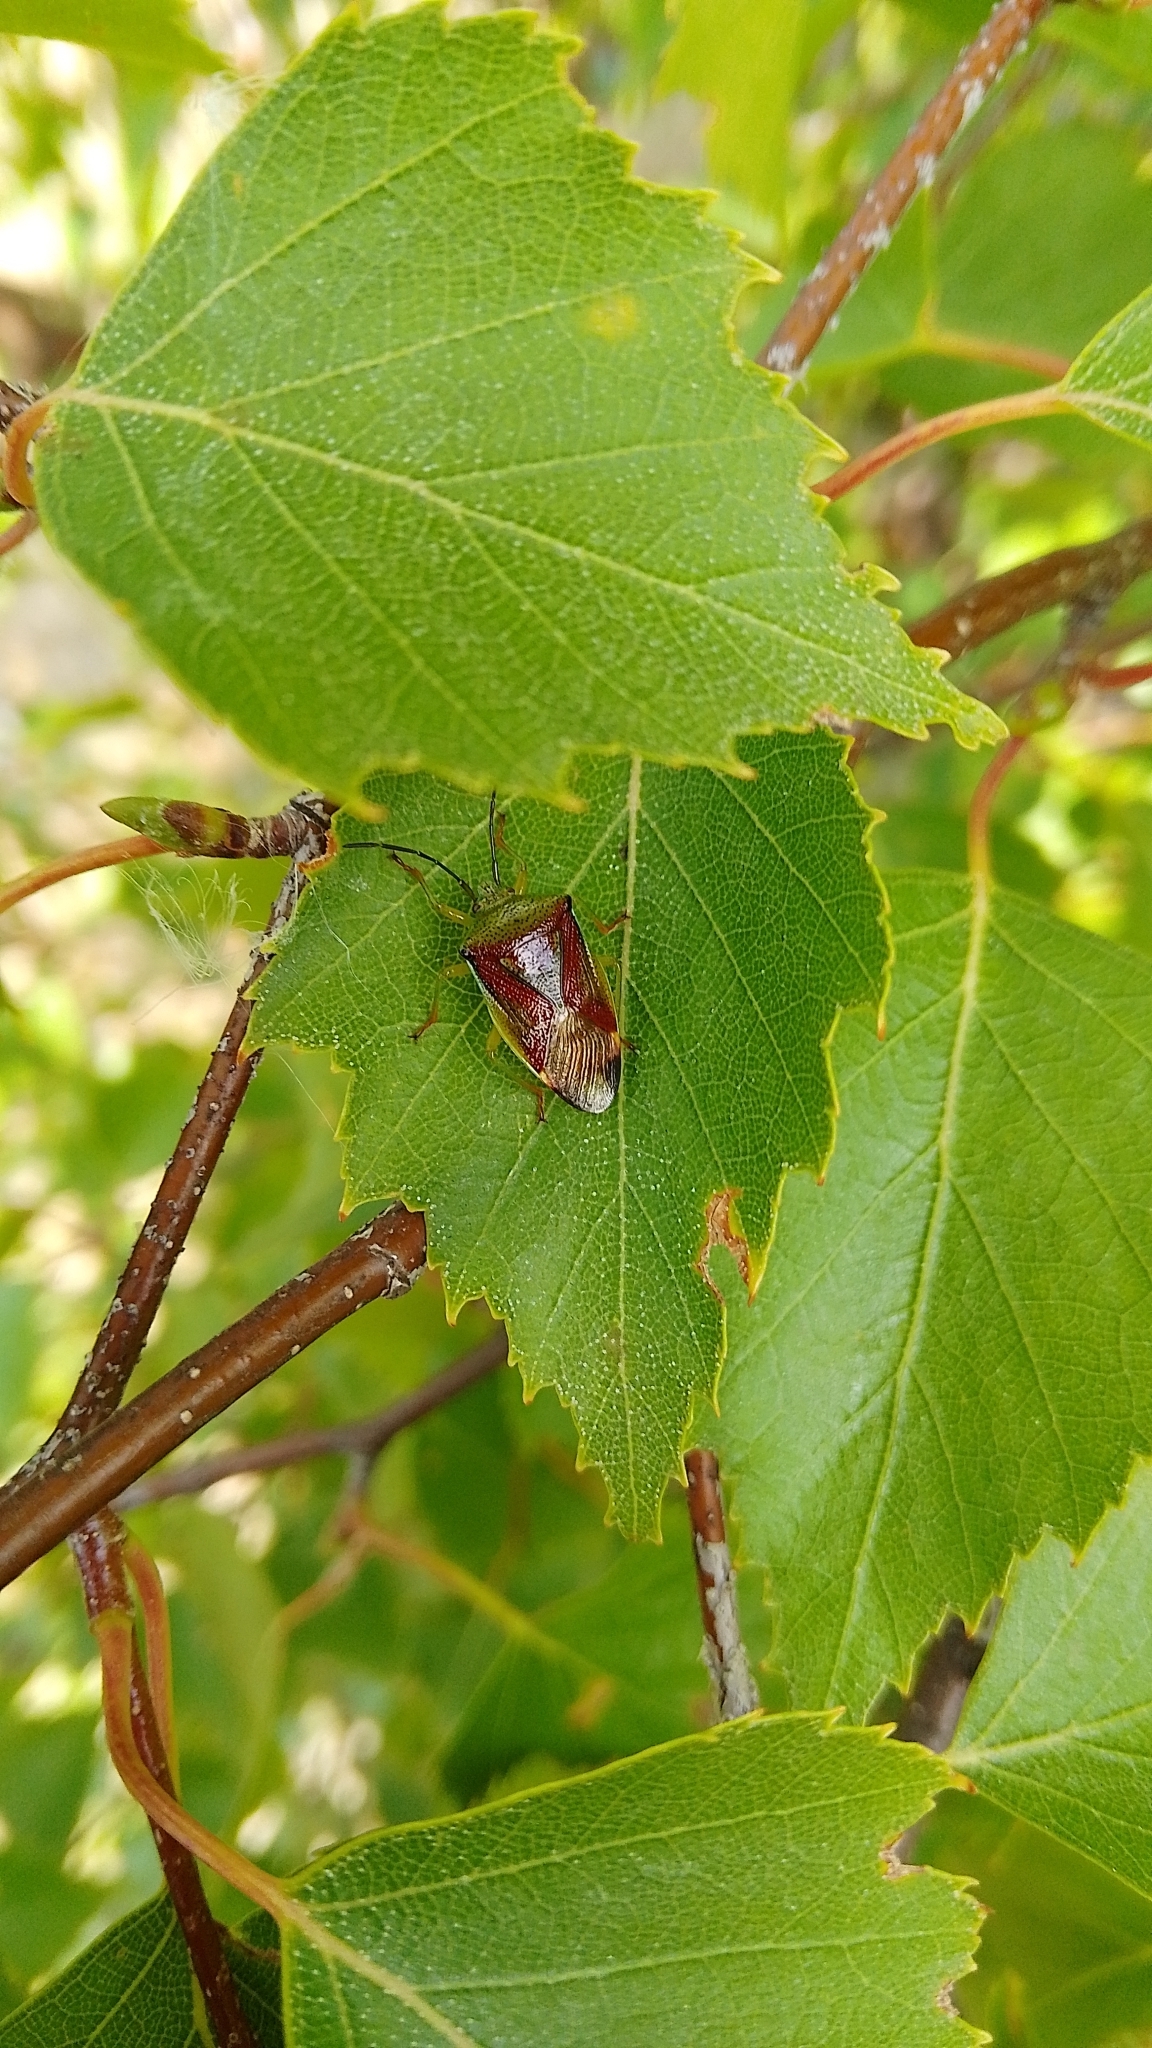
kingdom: Animalia
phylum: Arthropoda
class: Insecta
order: Hemiptera
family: Acanthosomatidae
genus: Elasmostethus
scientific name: Elasmostethus interstinctus
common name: Birch shieldbug
